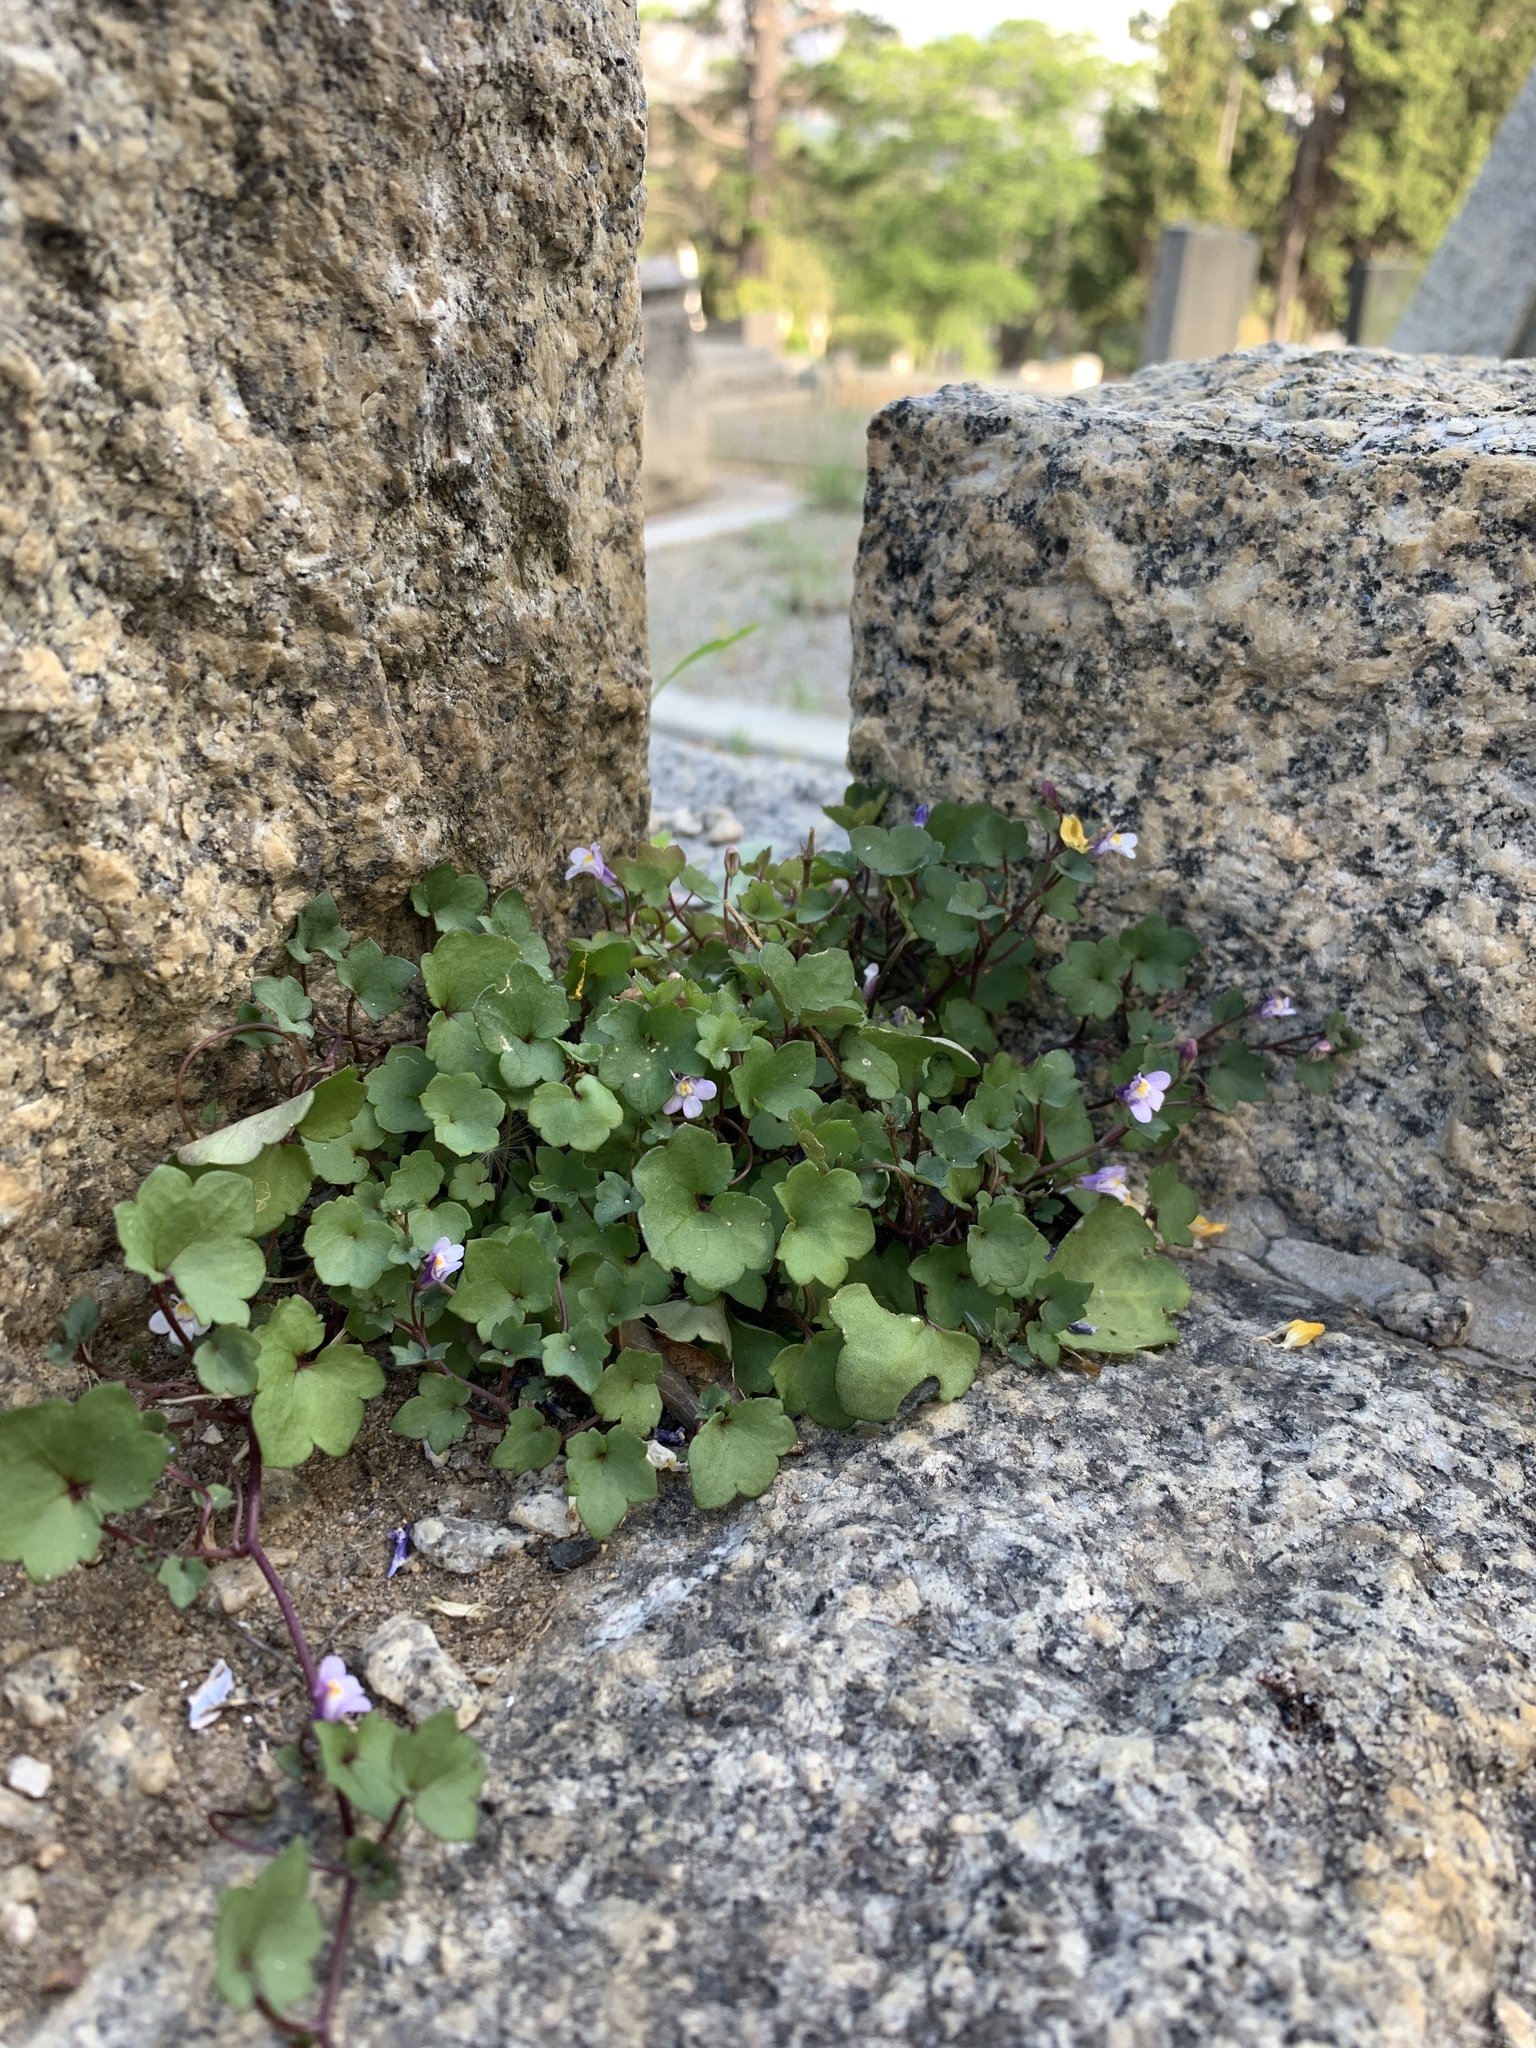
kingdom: Plantae
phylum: Tracheophyta
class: Magnoliopsida
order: Lamiales
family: Plantaginaceae
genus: Cymbalaria
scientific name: Cymbalaria muralis
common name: Ivy-leaved toadflax
